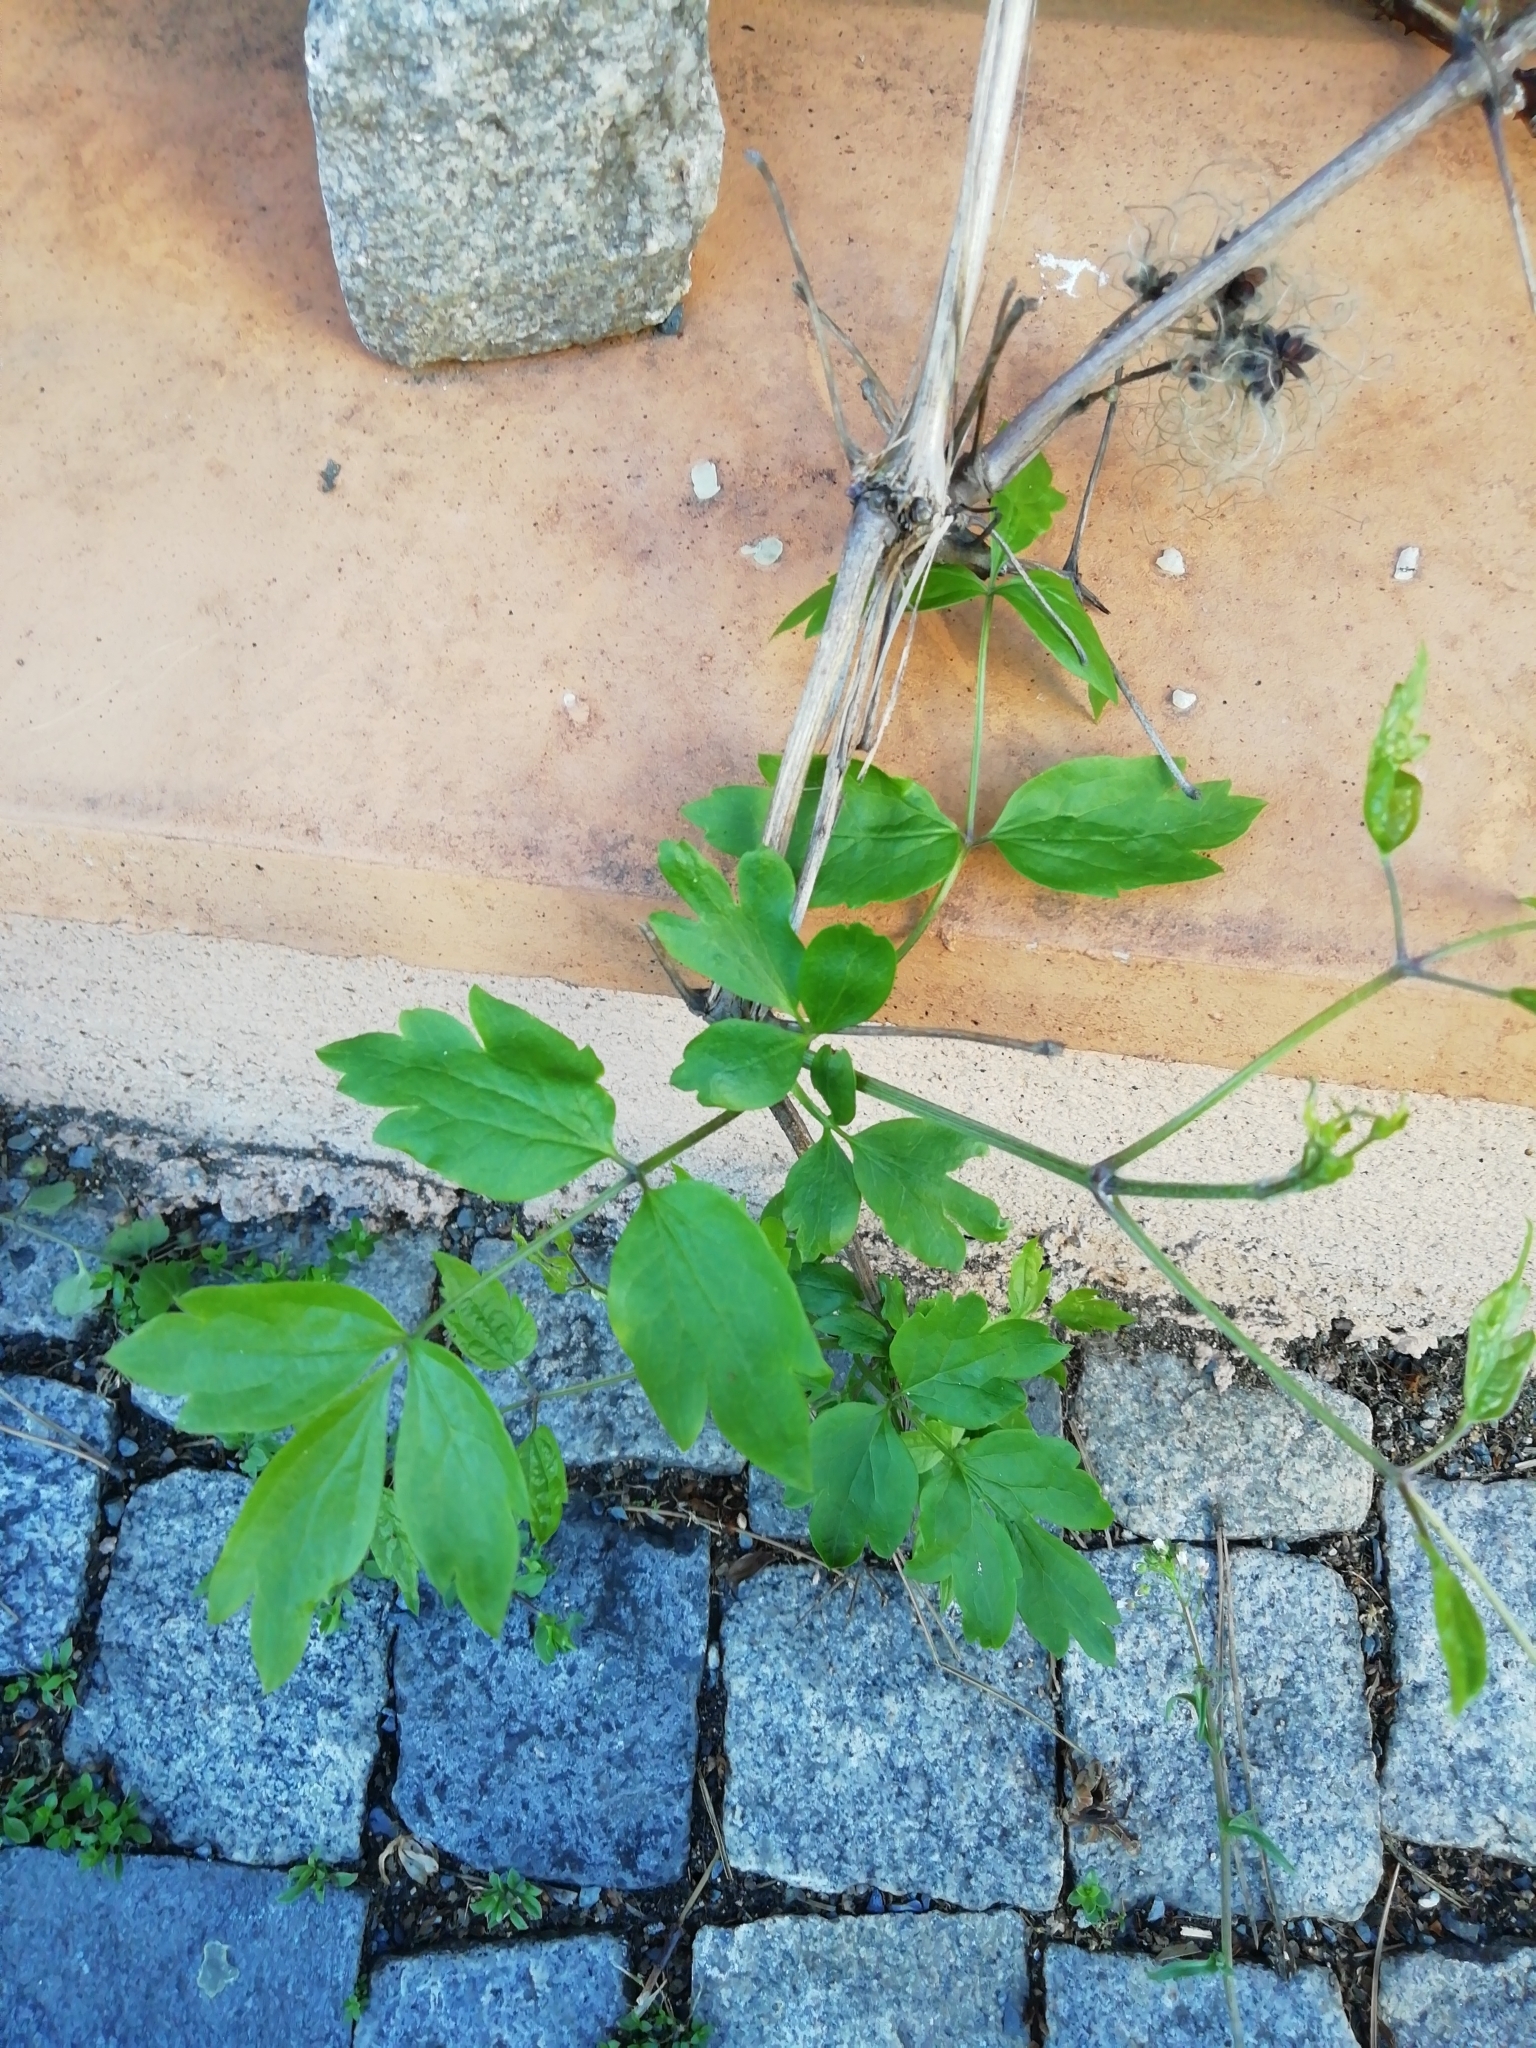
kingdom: Plantae
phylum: Tracheophyta
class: Magnoliopsida
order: Ranunculales
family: Ranunculaceae
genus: Clematis
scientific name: Clematis vitalba
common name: Evergreen clematis
